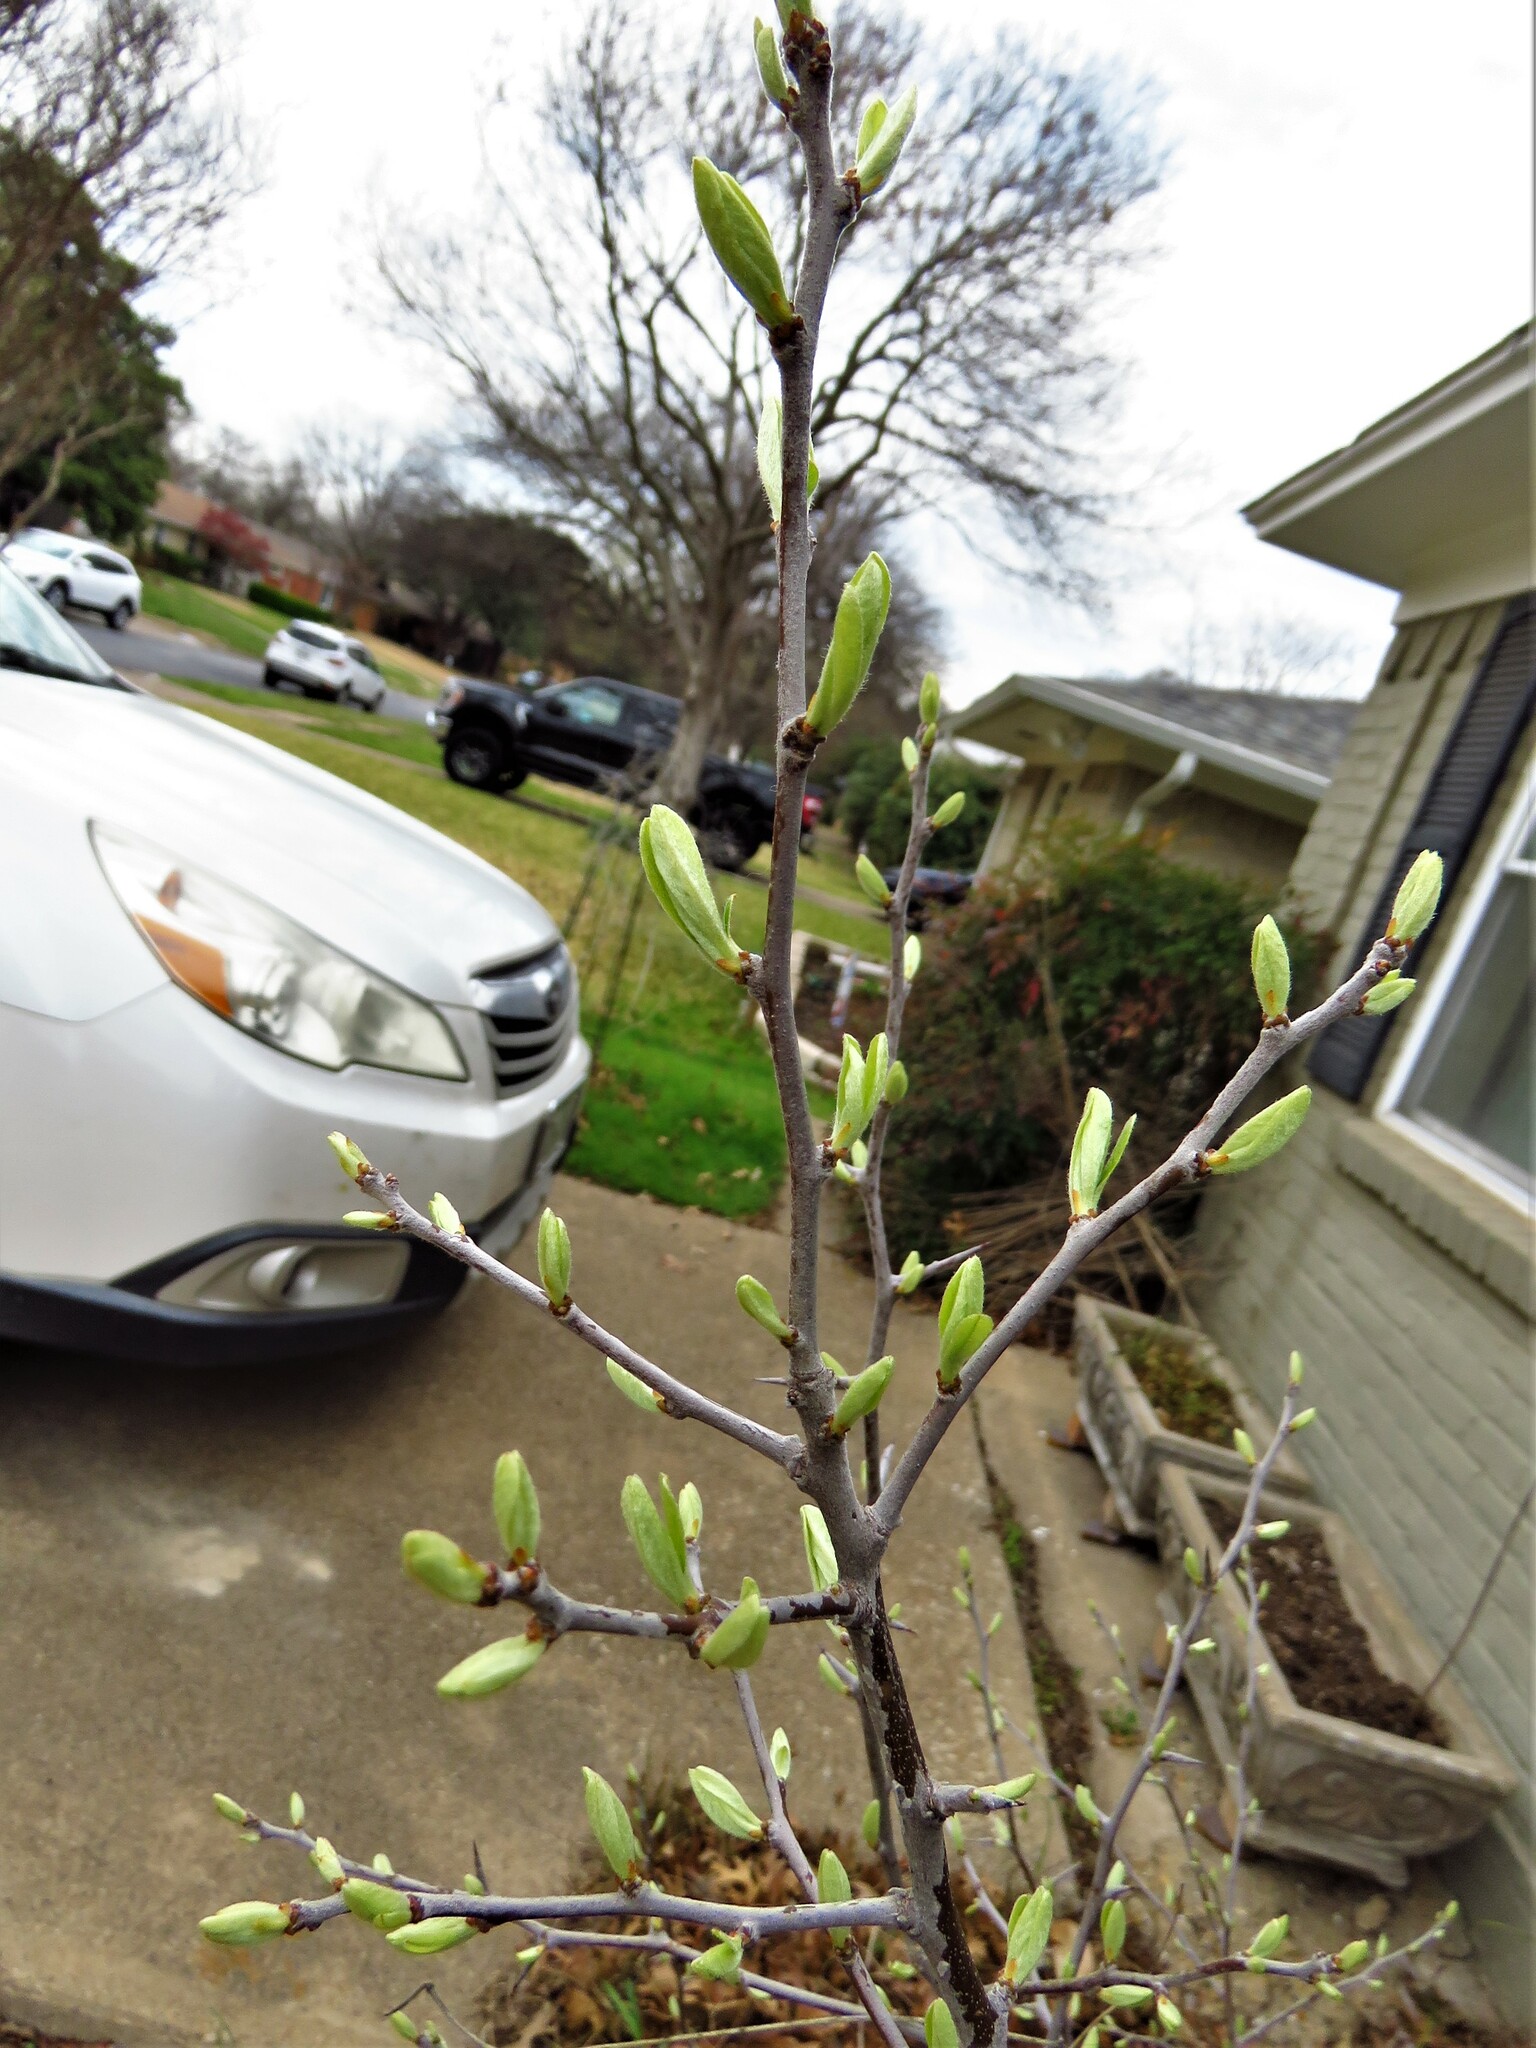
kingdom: Plantae
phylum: Tracheophyta
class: Magnoliopsida
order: Ericales
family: Sapotaceae
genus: Sideroxylon
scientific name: Sideroxylon lanuginosum
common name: Chittamwood
